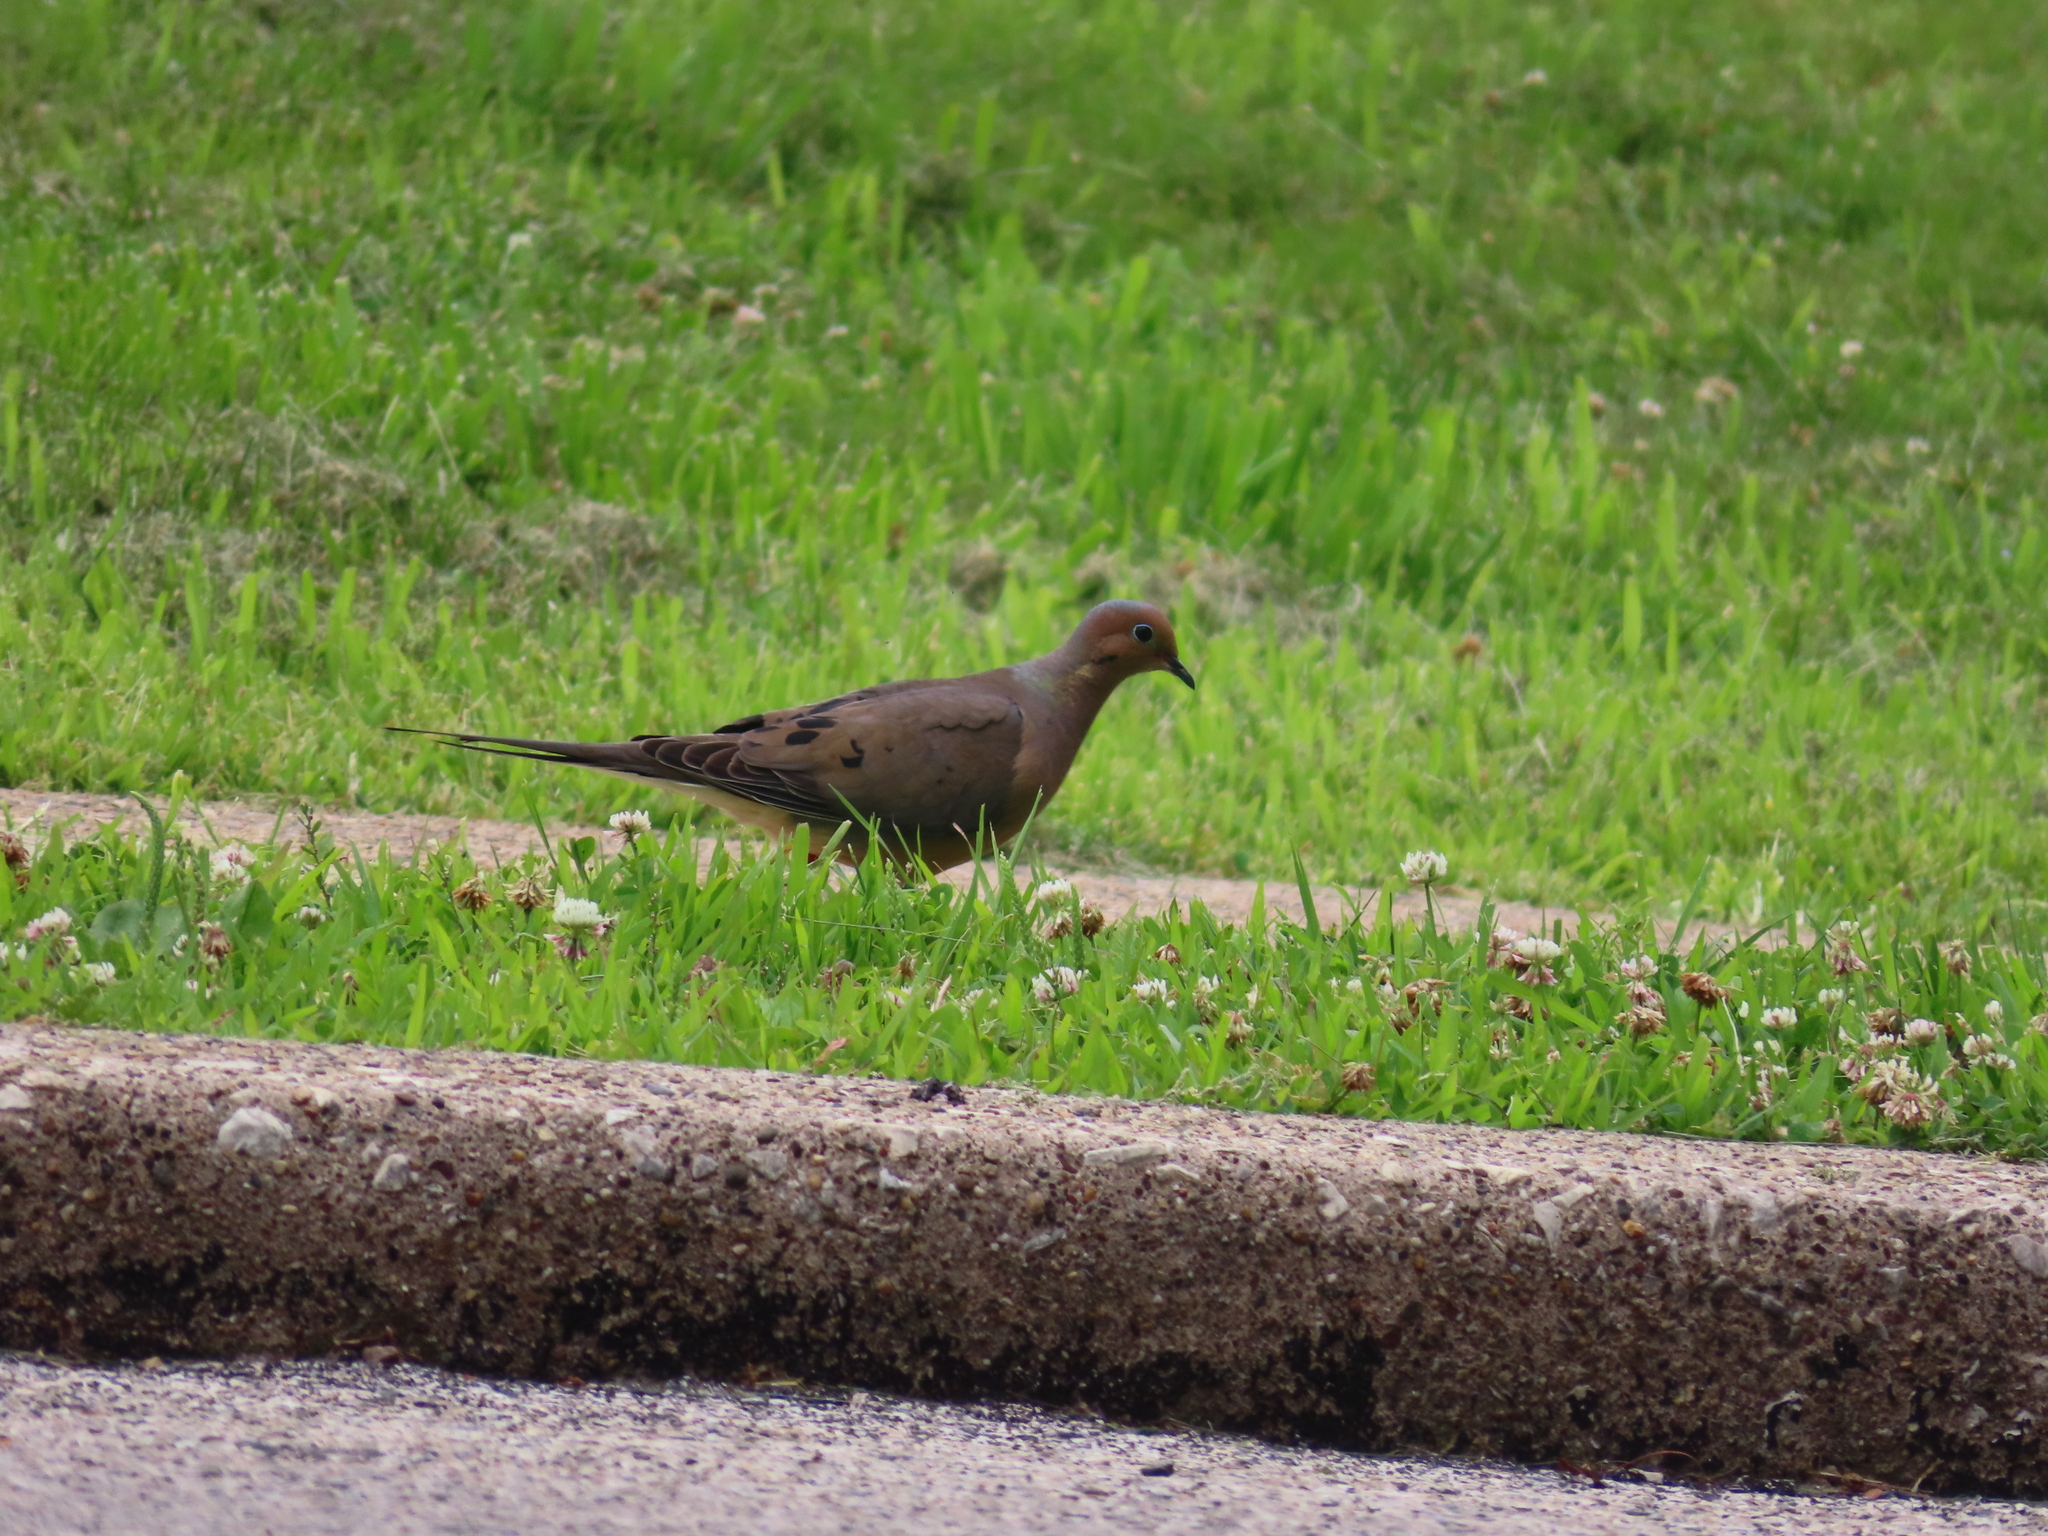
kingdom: Animalia
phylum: Chordata
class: Aves
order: Columbiformes
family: Columbidae
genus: Zenaida
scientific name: Zenaida macroura
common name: Mourning dove
